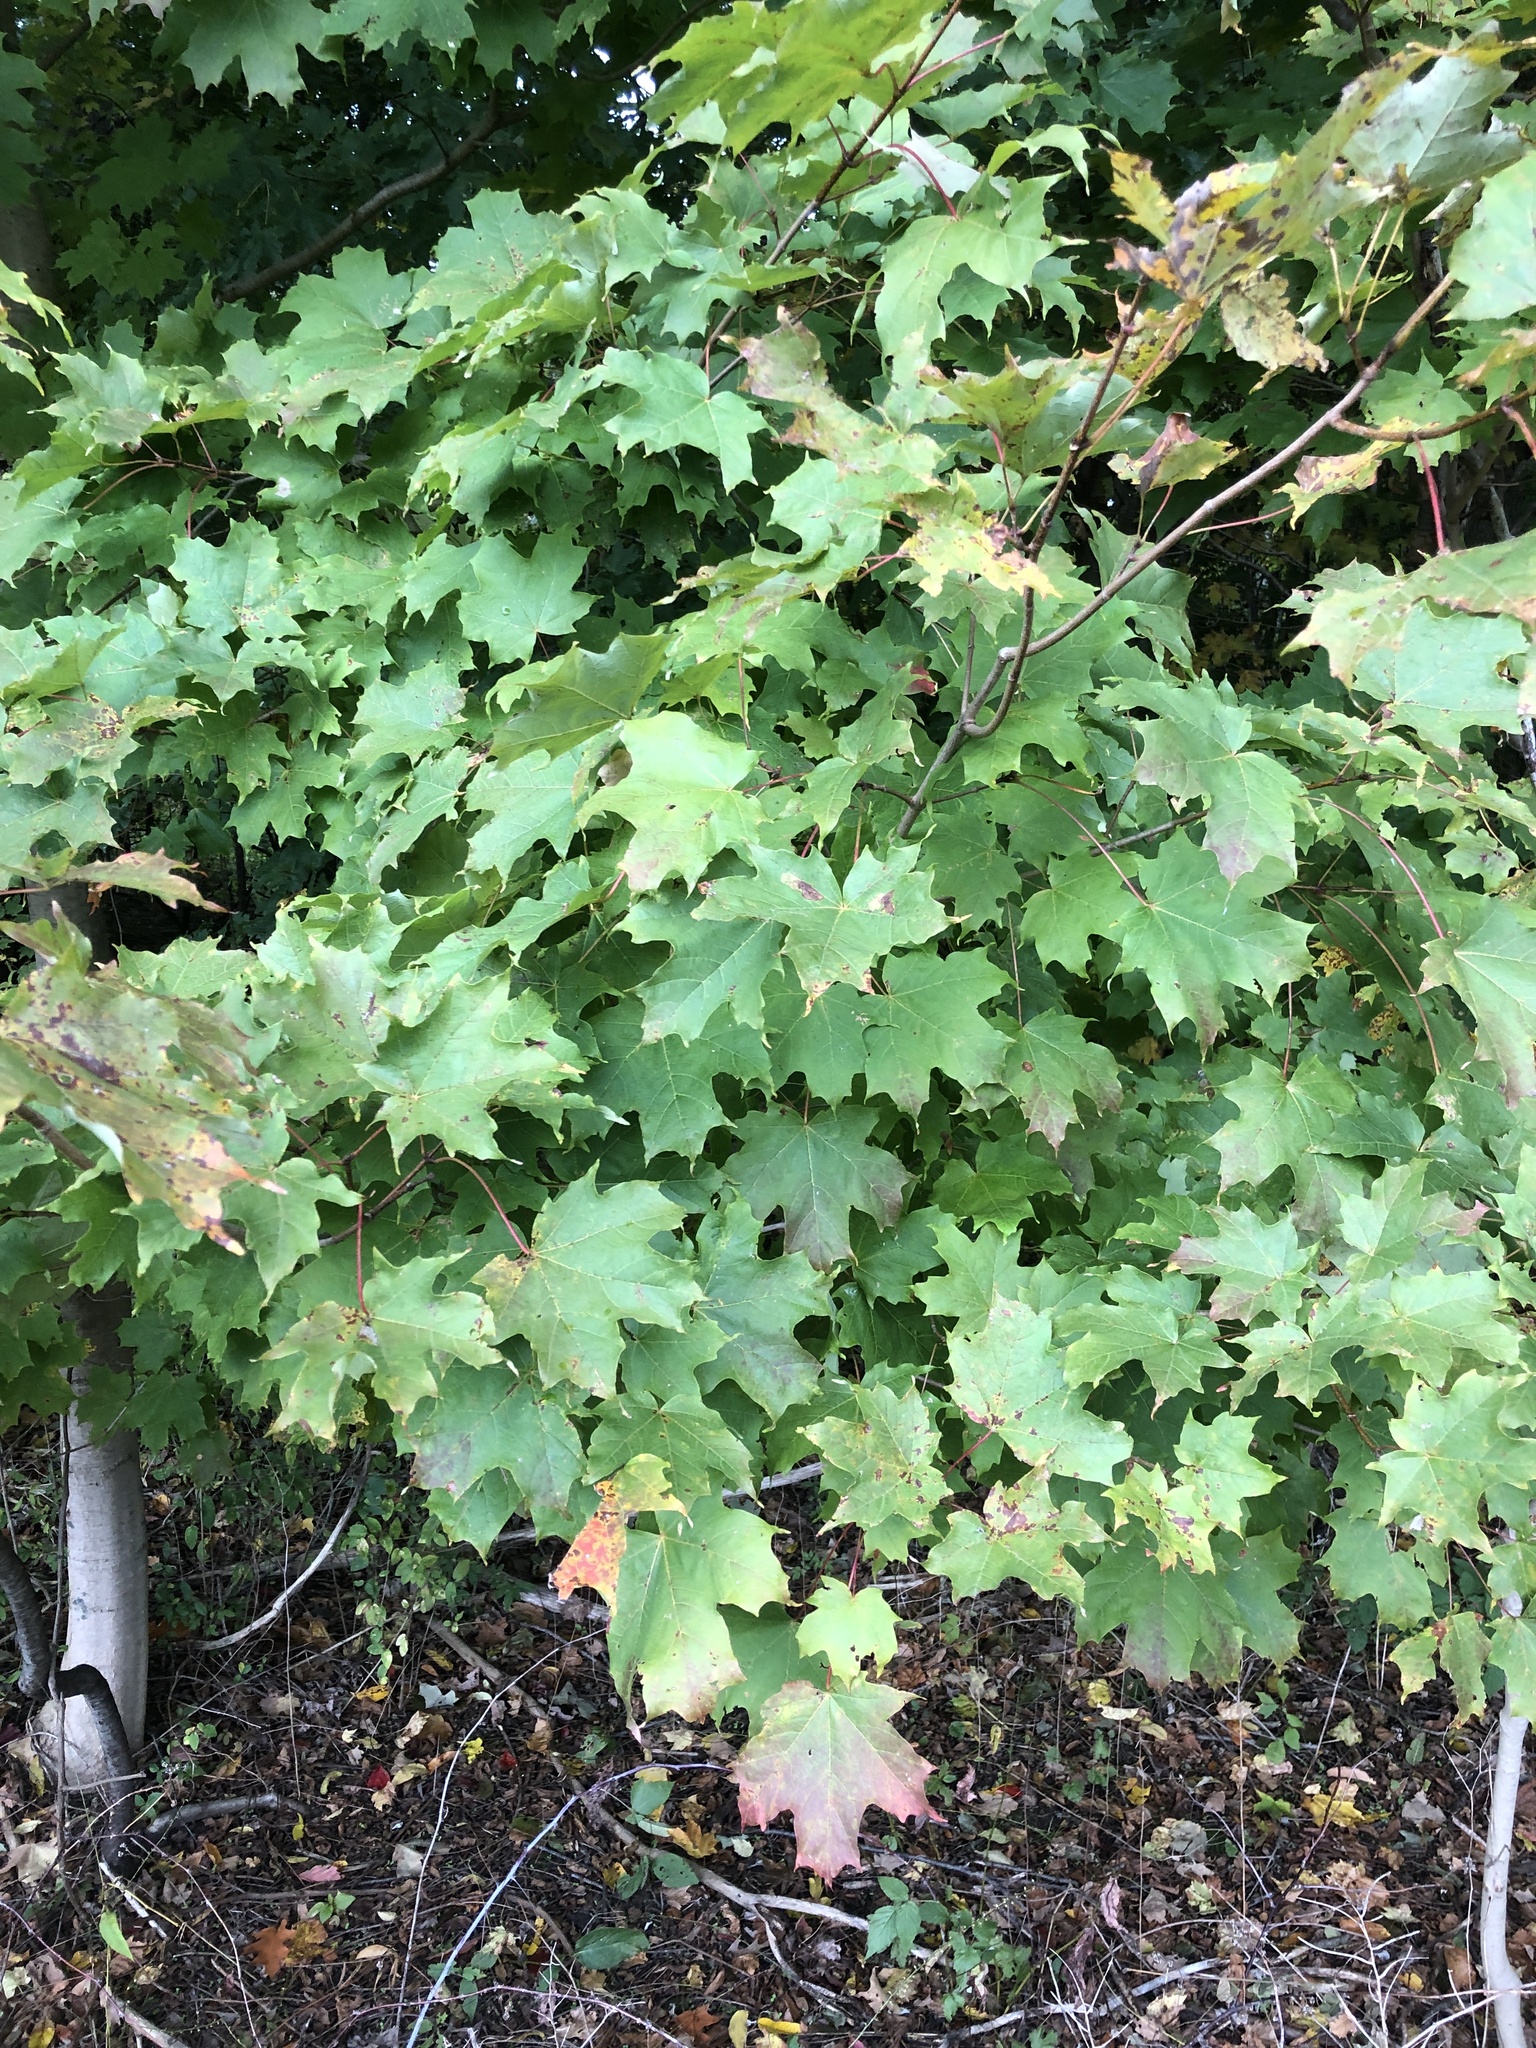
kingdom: Plantae
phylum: Tracheophyta
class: Magnoliopsida
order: Sapindales
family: Sapindaceae
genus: Acer
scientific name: Acer saccharum
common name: Sugar maple
